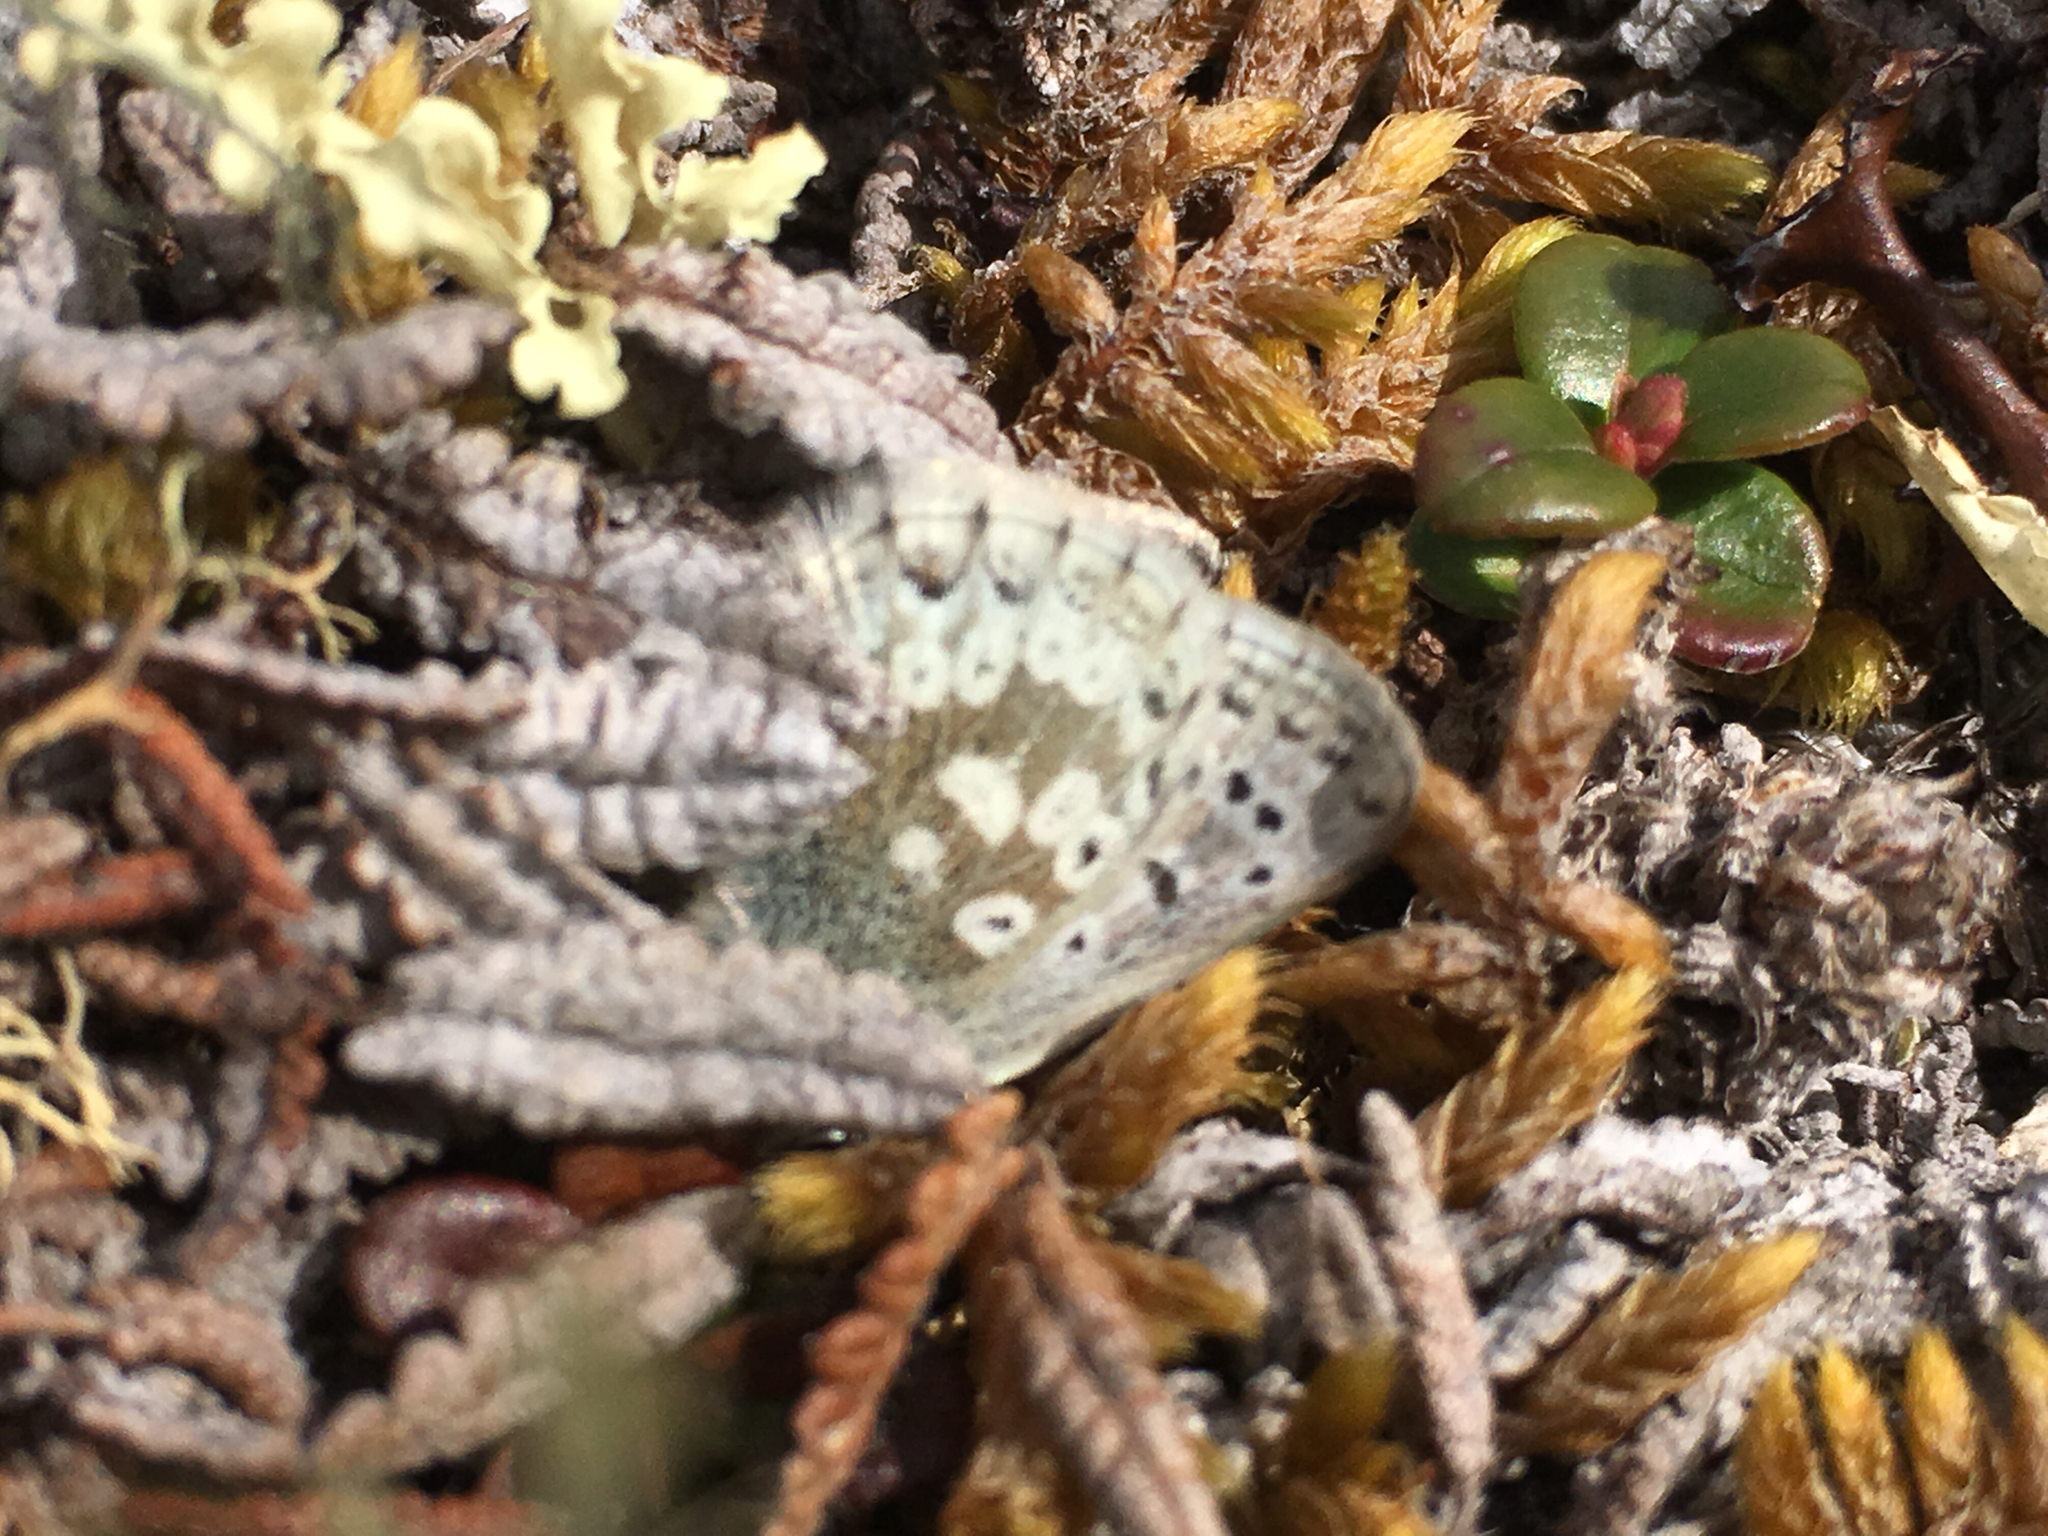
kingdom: Animalia
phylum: Arthropoda
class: Insecta
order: Lepidoptera
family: Lycaenidae
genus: Agriades
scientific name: Agriades glandon
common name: Glandon blue
